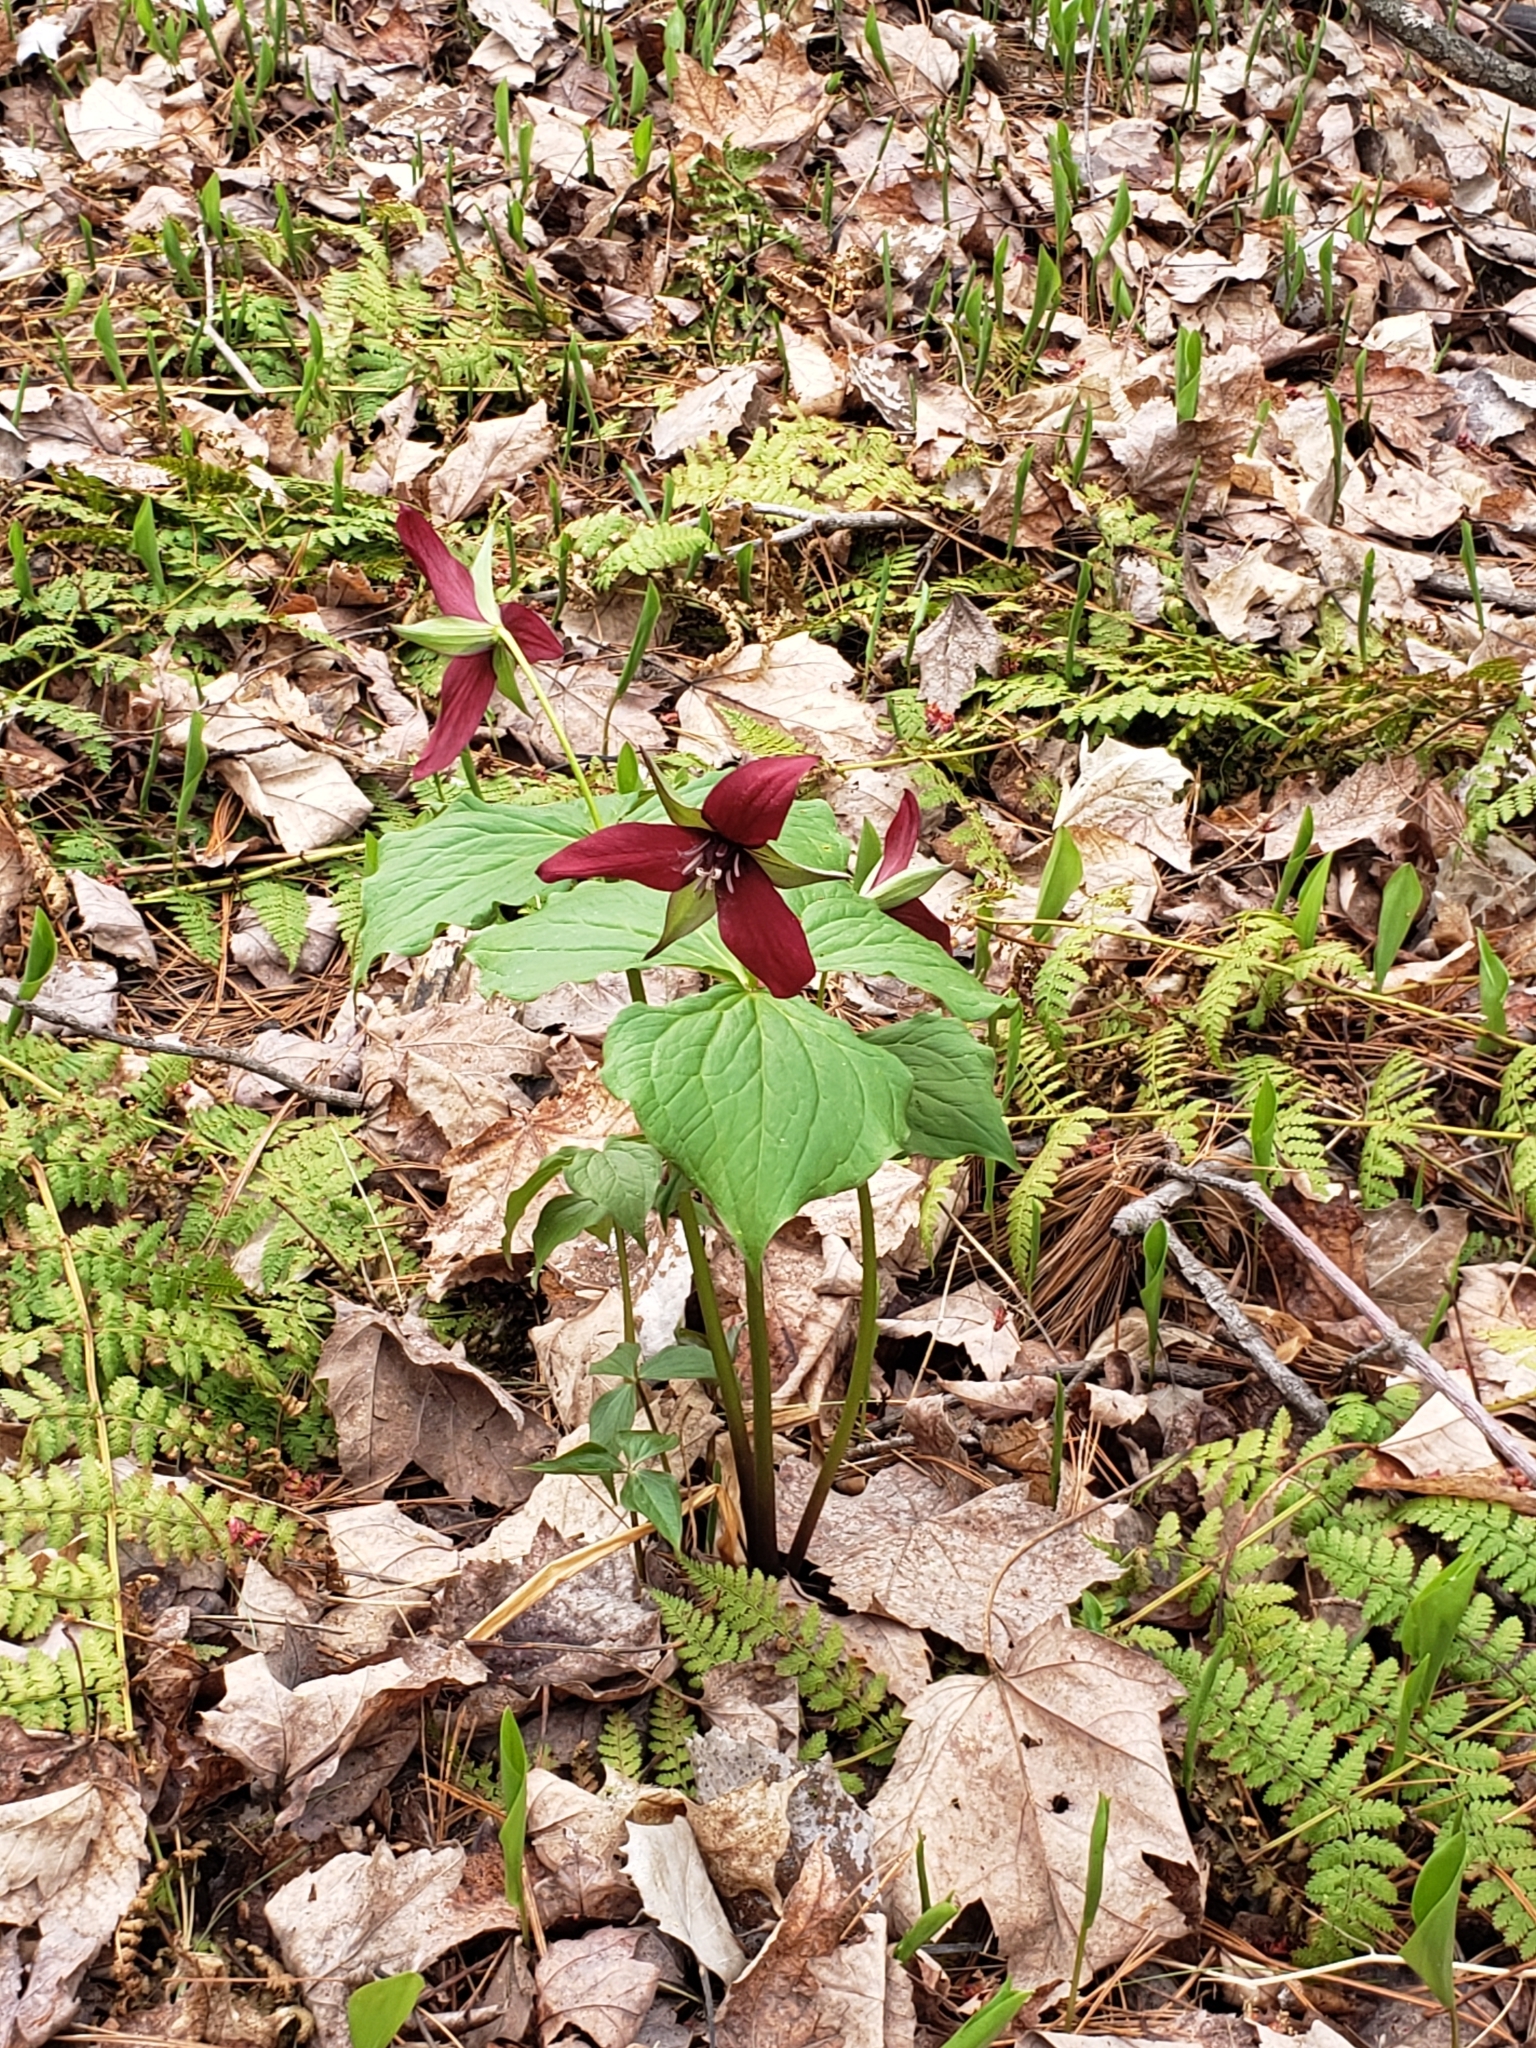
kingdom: Plantae
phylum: Tracheophyta
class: Liliopsida
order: Liliales
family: Melanthiaceae
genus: Trillium
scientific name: Trillium erectum
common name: Purple trillium
